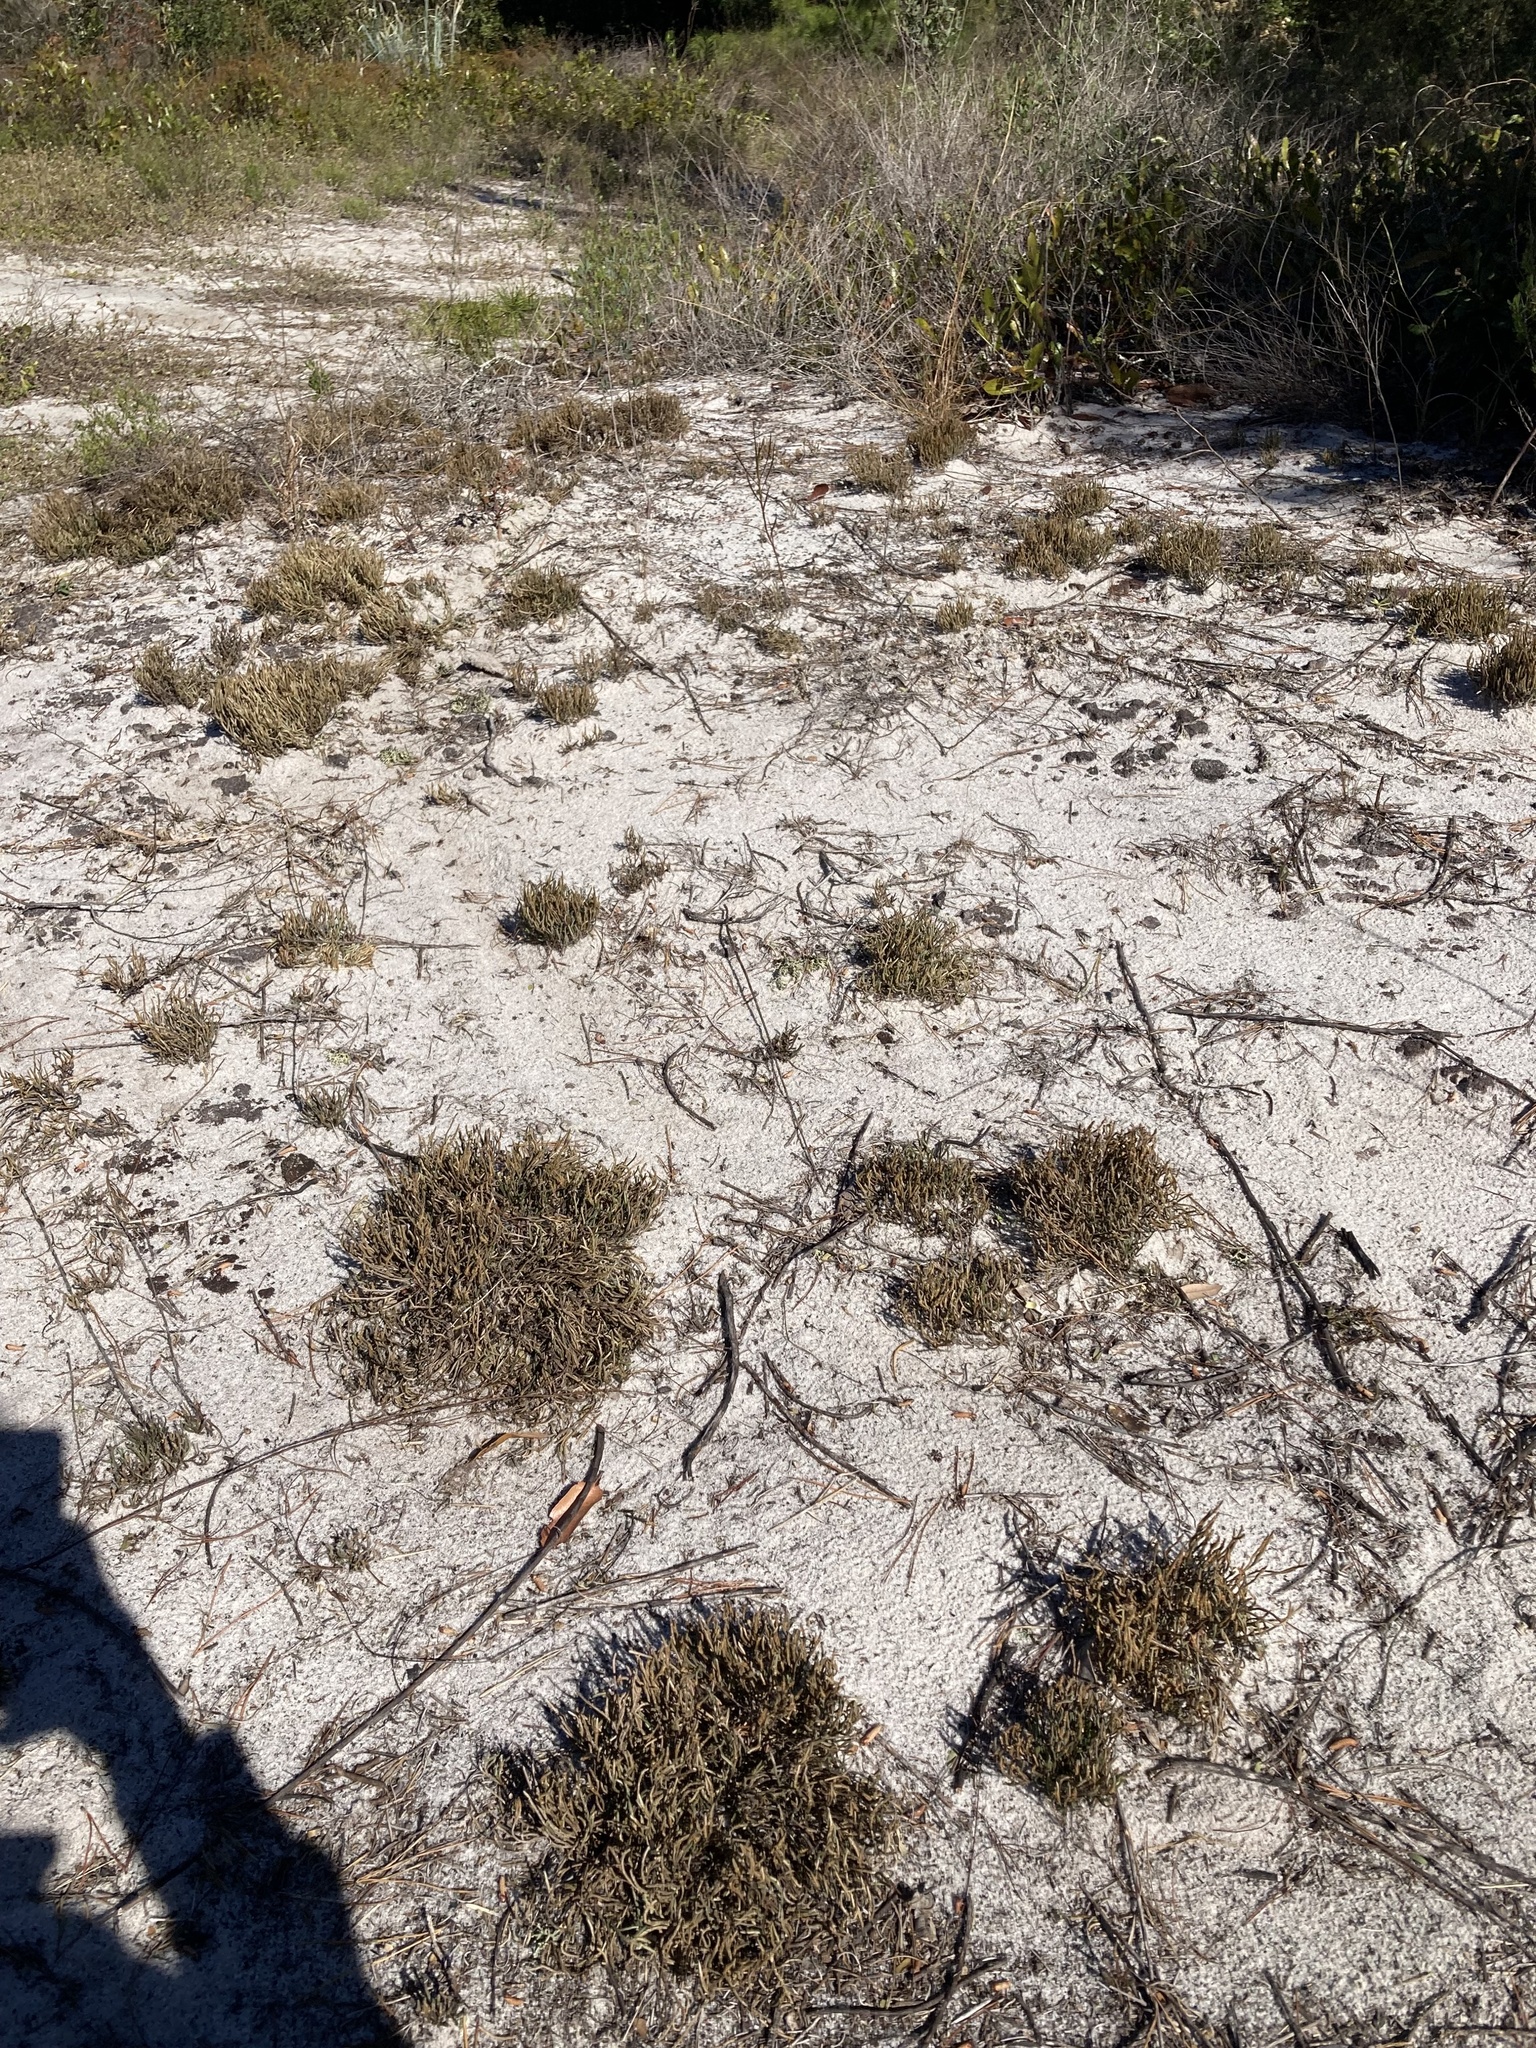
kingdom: Plantae
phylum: Tracheophyta
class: Lycopodiopsida
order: Selaginellales
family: Selaginellaceae
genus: Selaginella
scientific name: Selaginella arenicola
